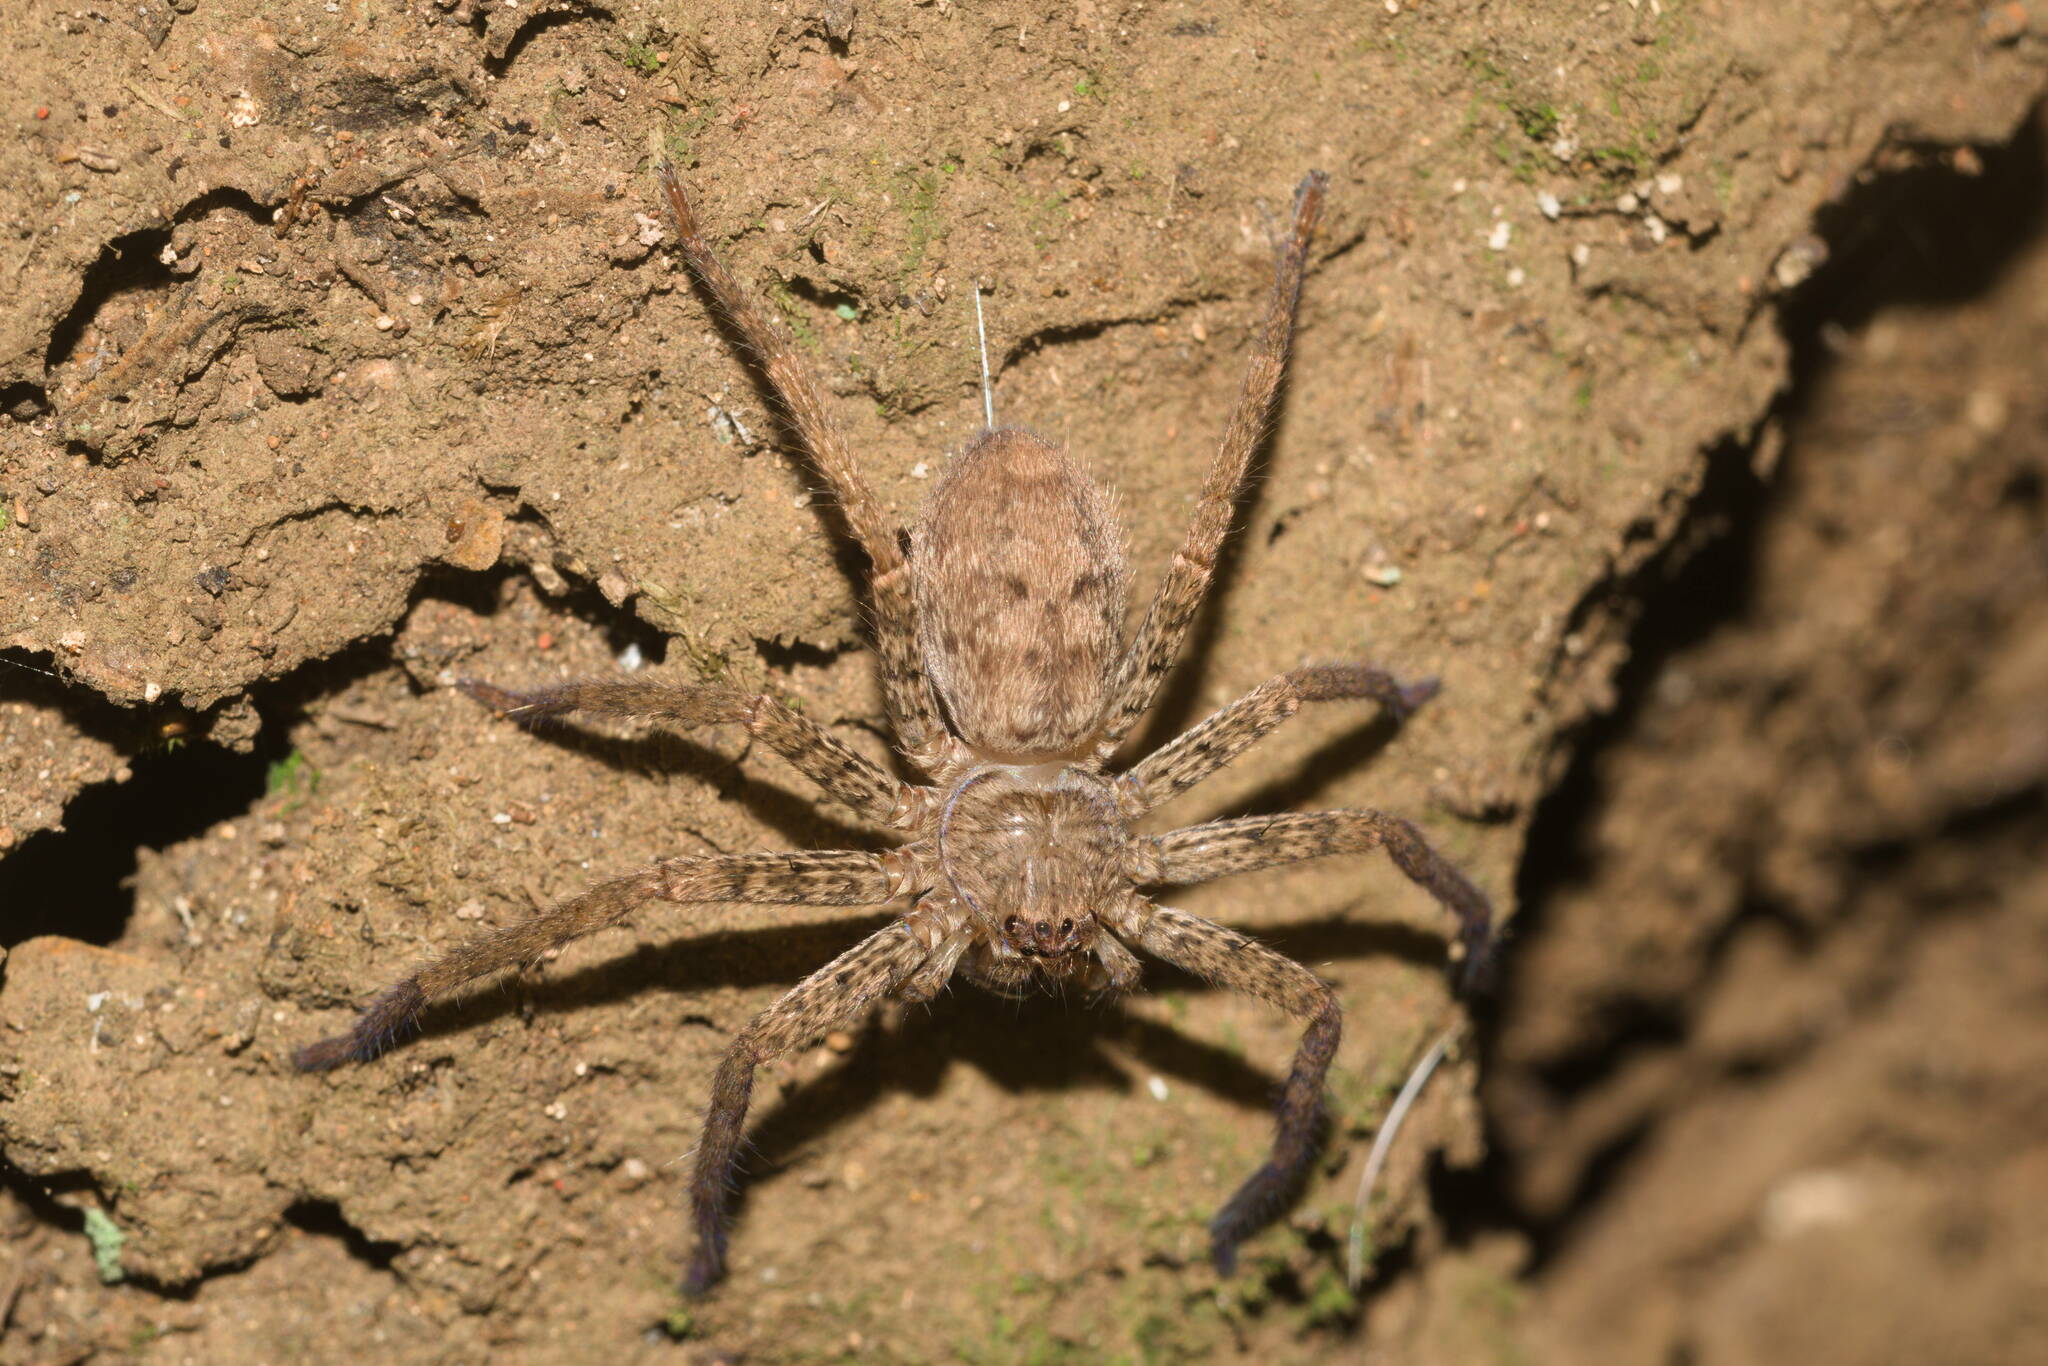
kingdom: Animalia
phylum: Arthropoda
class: Arachnida
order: Araneae
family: Sparassidae
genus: Heteropoda
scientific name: Heteropoda venatoria
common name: Huntsman spider
